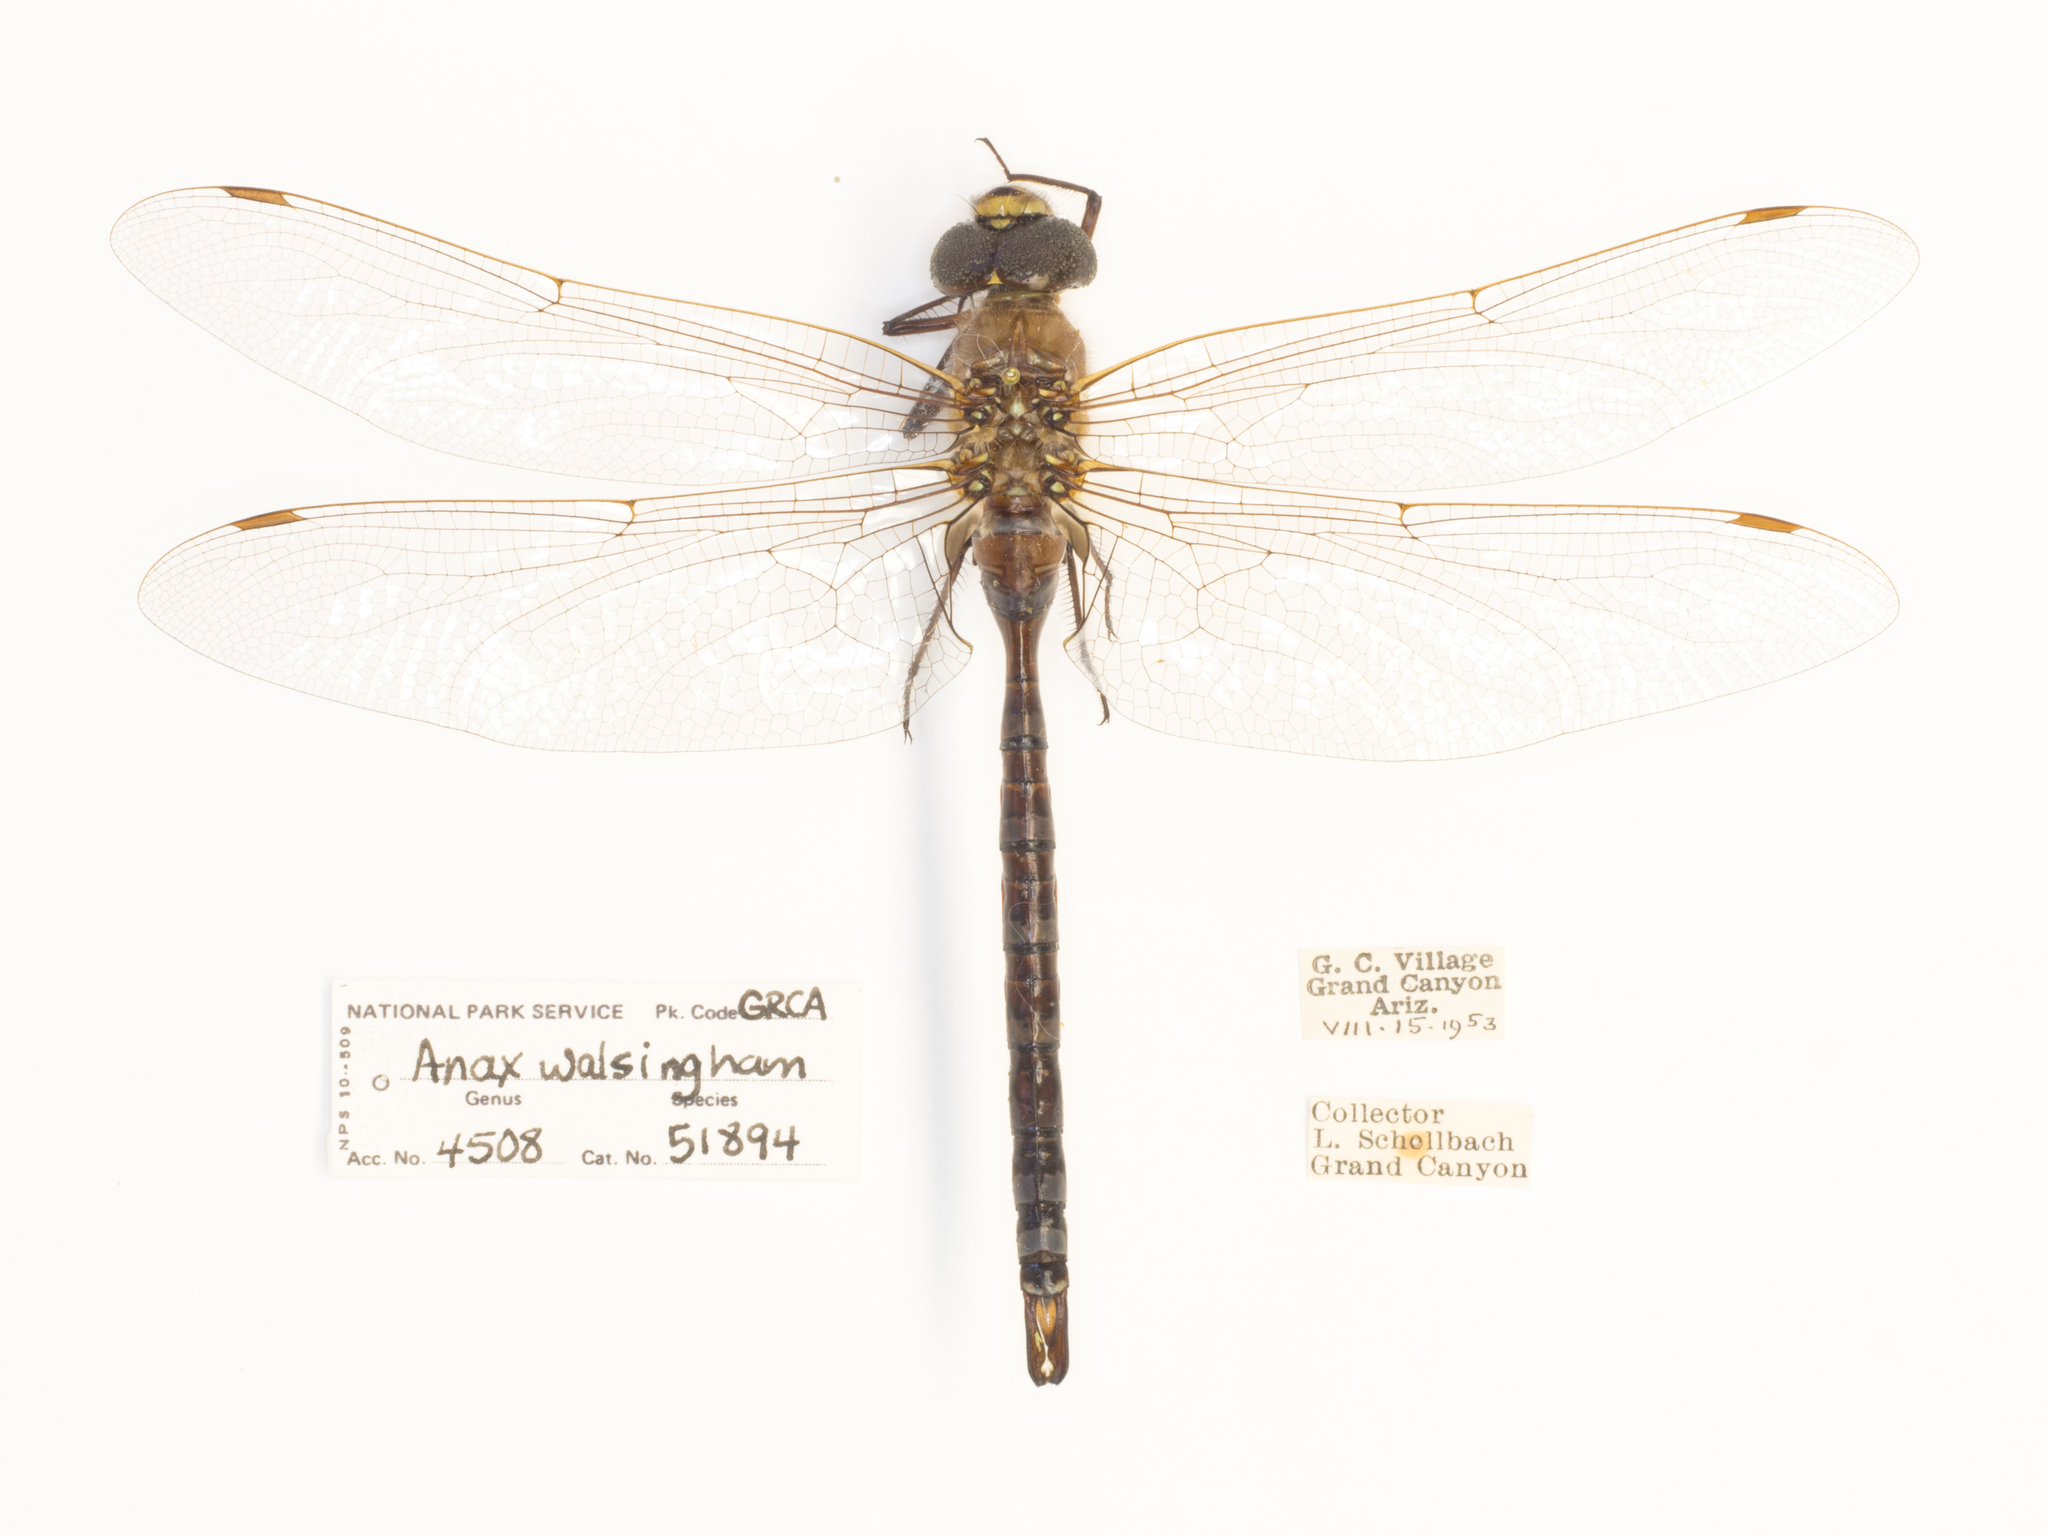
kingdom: Animalia
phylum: Arthropoda
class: Insecta
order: Odonata
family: Aeshnidae
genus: Aeshna
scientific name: Aeshna persephone
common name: Persephone's darner
